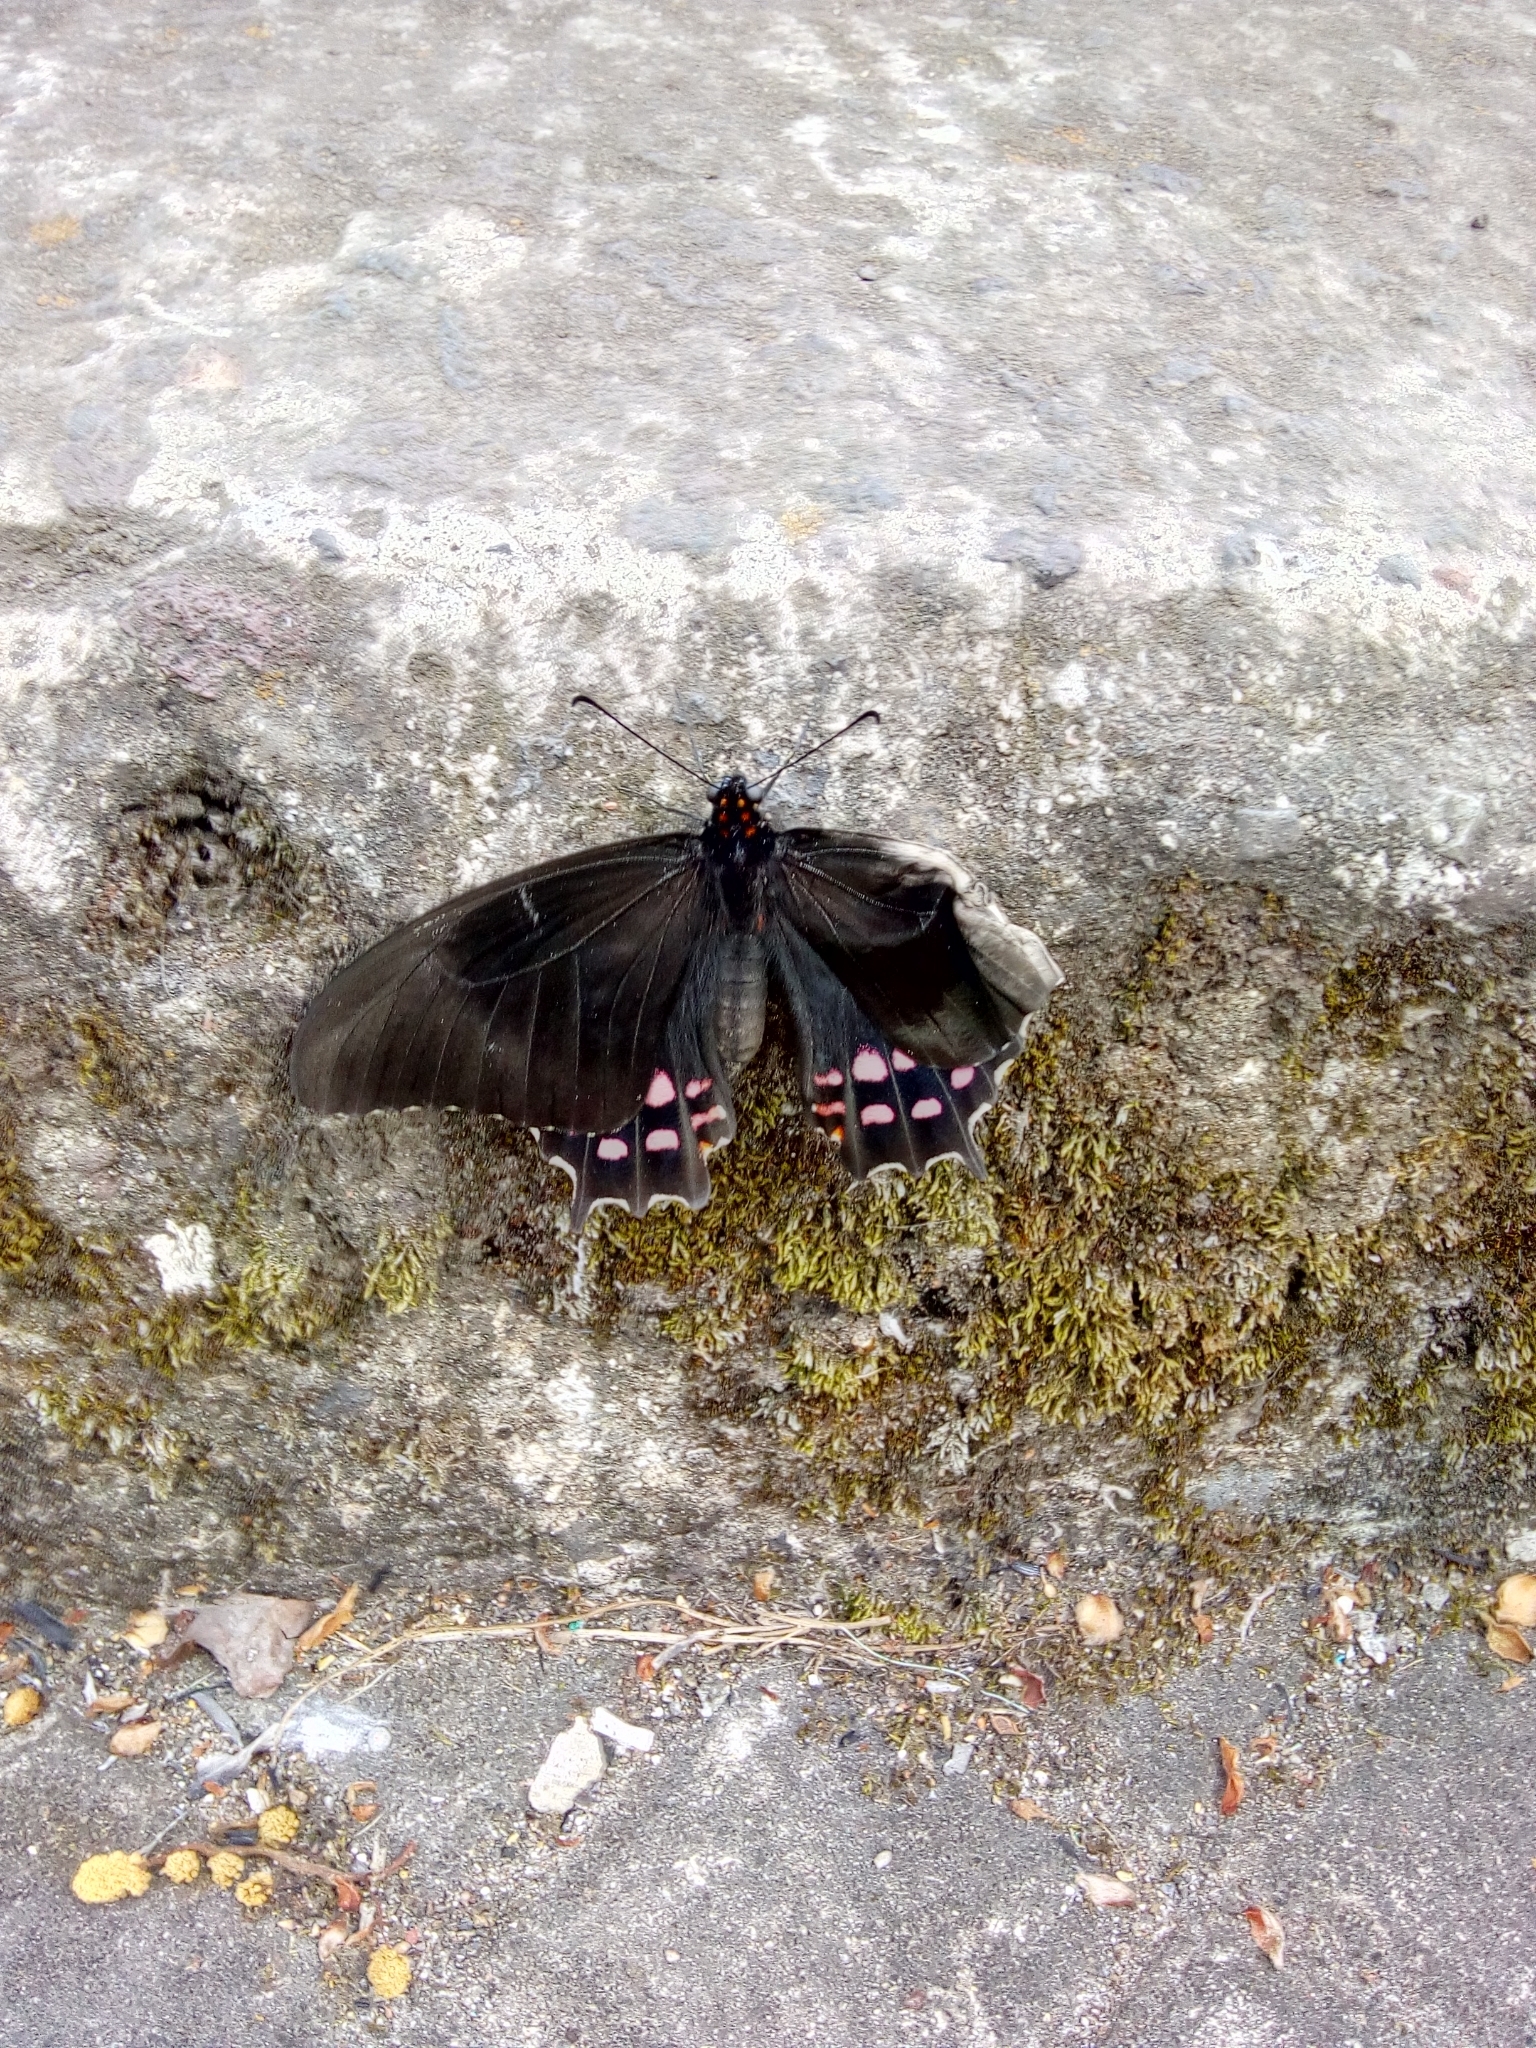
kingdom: Animalia
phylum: Arthropoda
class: Insecta
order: Lepidoptera
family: Papilionidae
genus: Heraclides
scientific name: Heraclides rogeri
